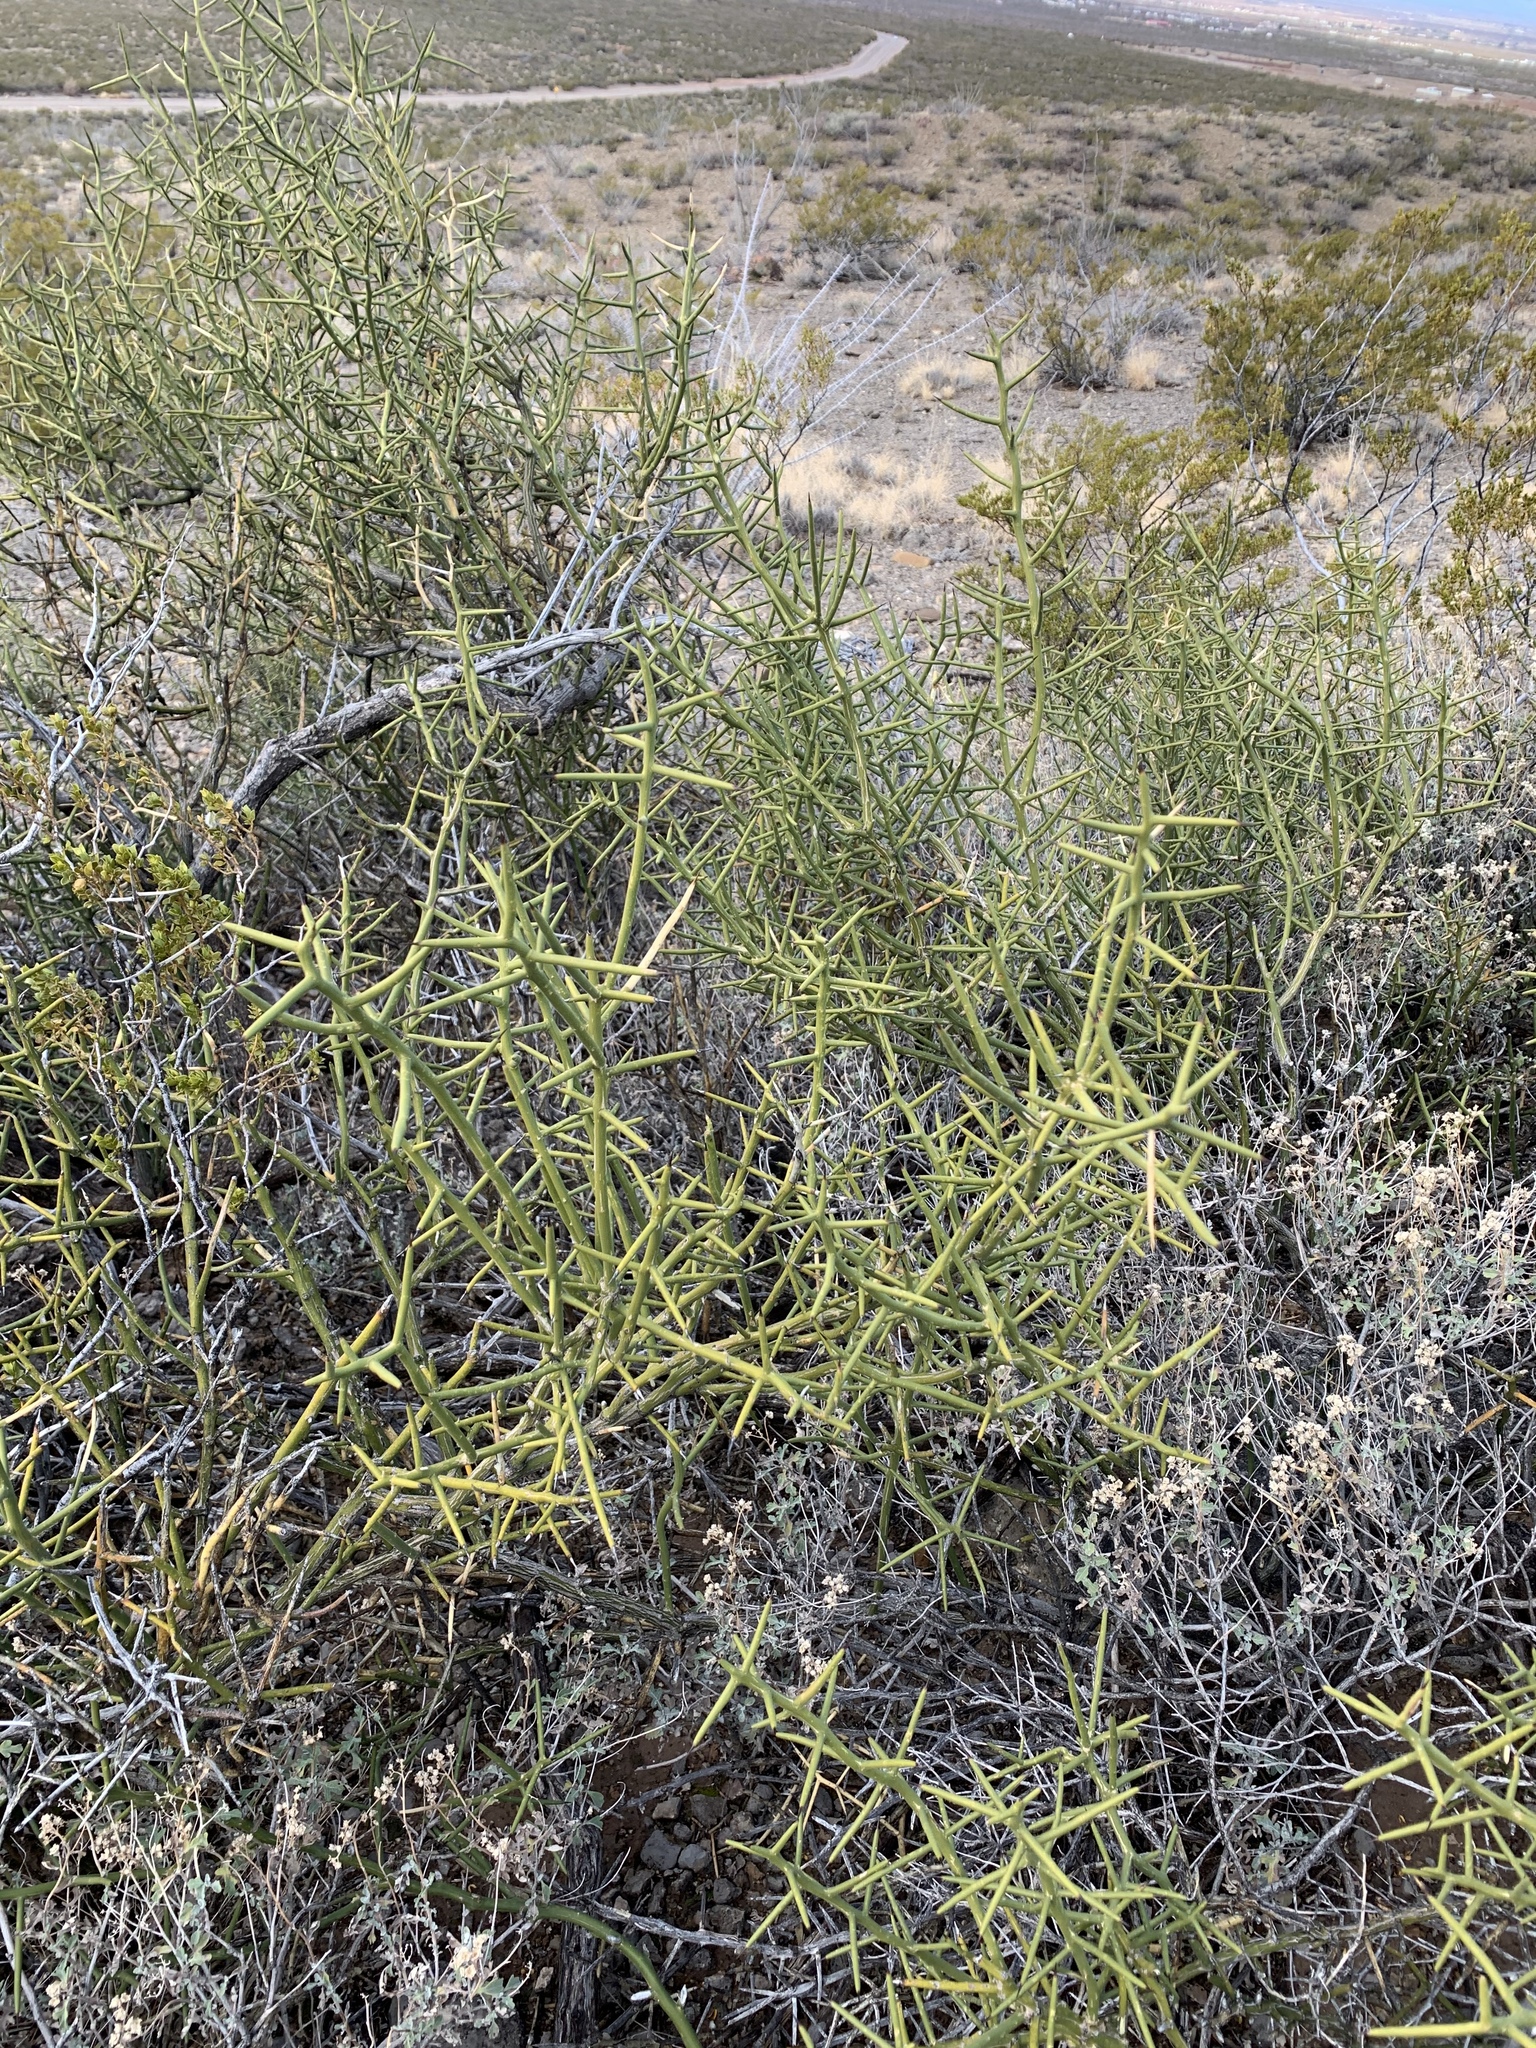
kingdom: Plantae
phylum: Tracheophyta
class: Magnoliopsida
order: Brassicales
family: Koeberliniaceae
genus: Koeberlinia
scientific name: Koeberlinia spinosa
